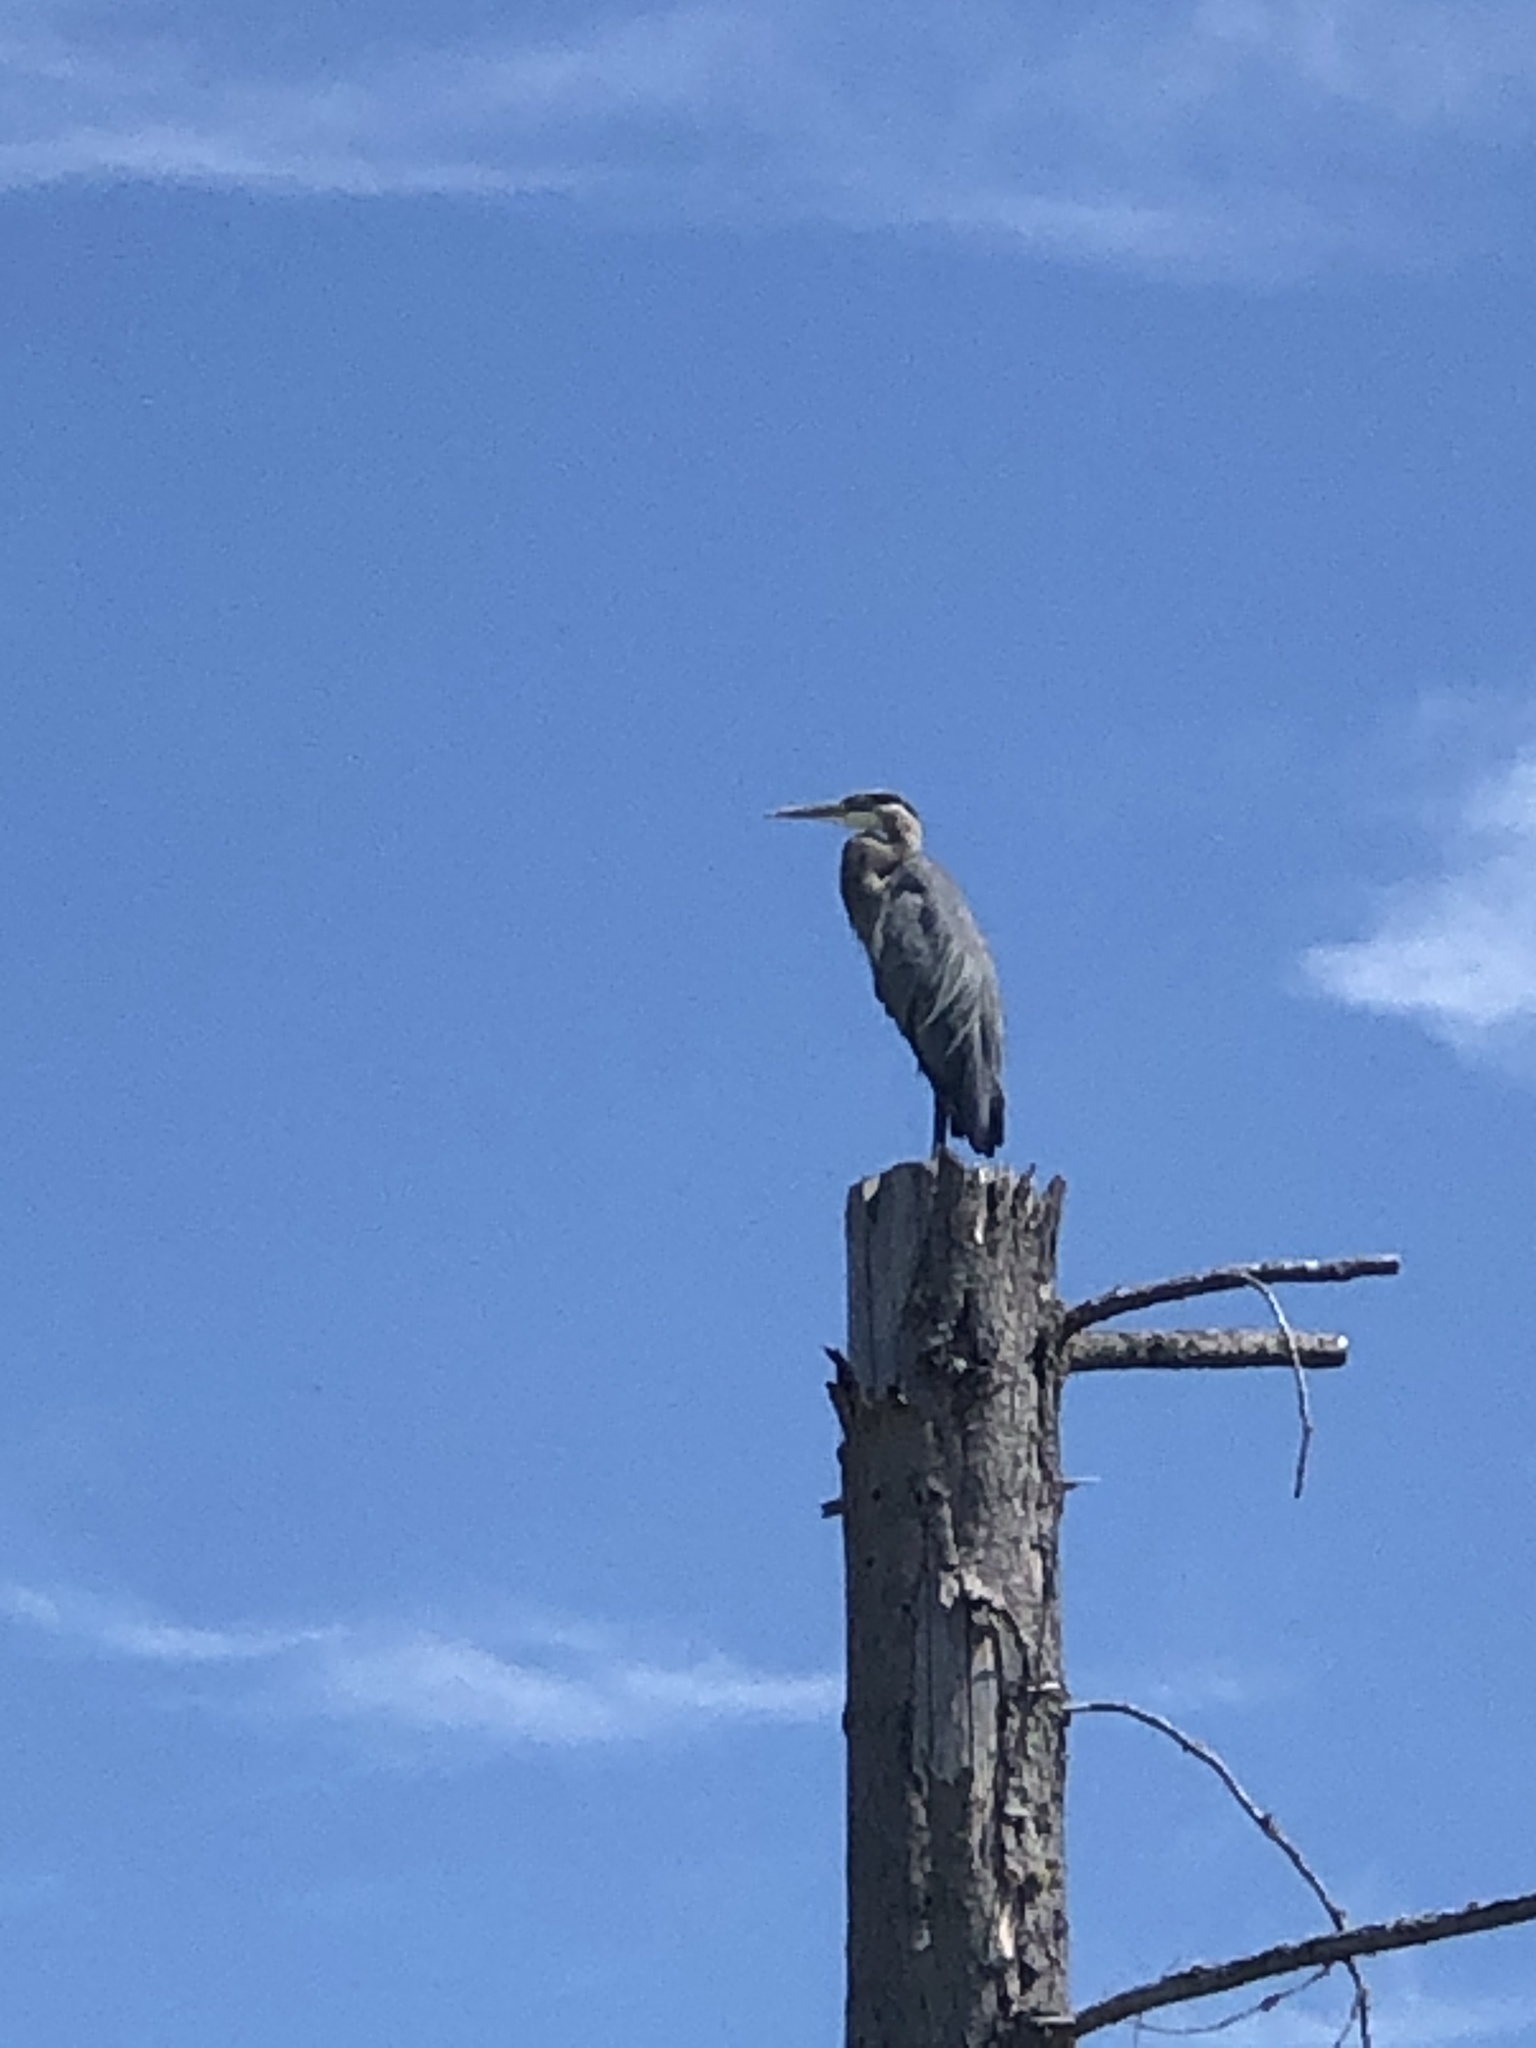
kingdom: Animalia
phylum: Chordata
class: Aves
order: Pelecaniformes
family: Ardeidae
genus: Ardea
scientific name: Ardea herodias
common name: Great blue heron
